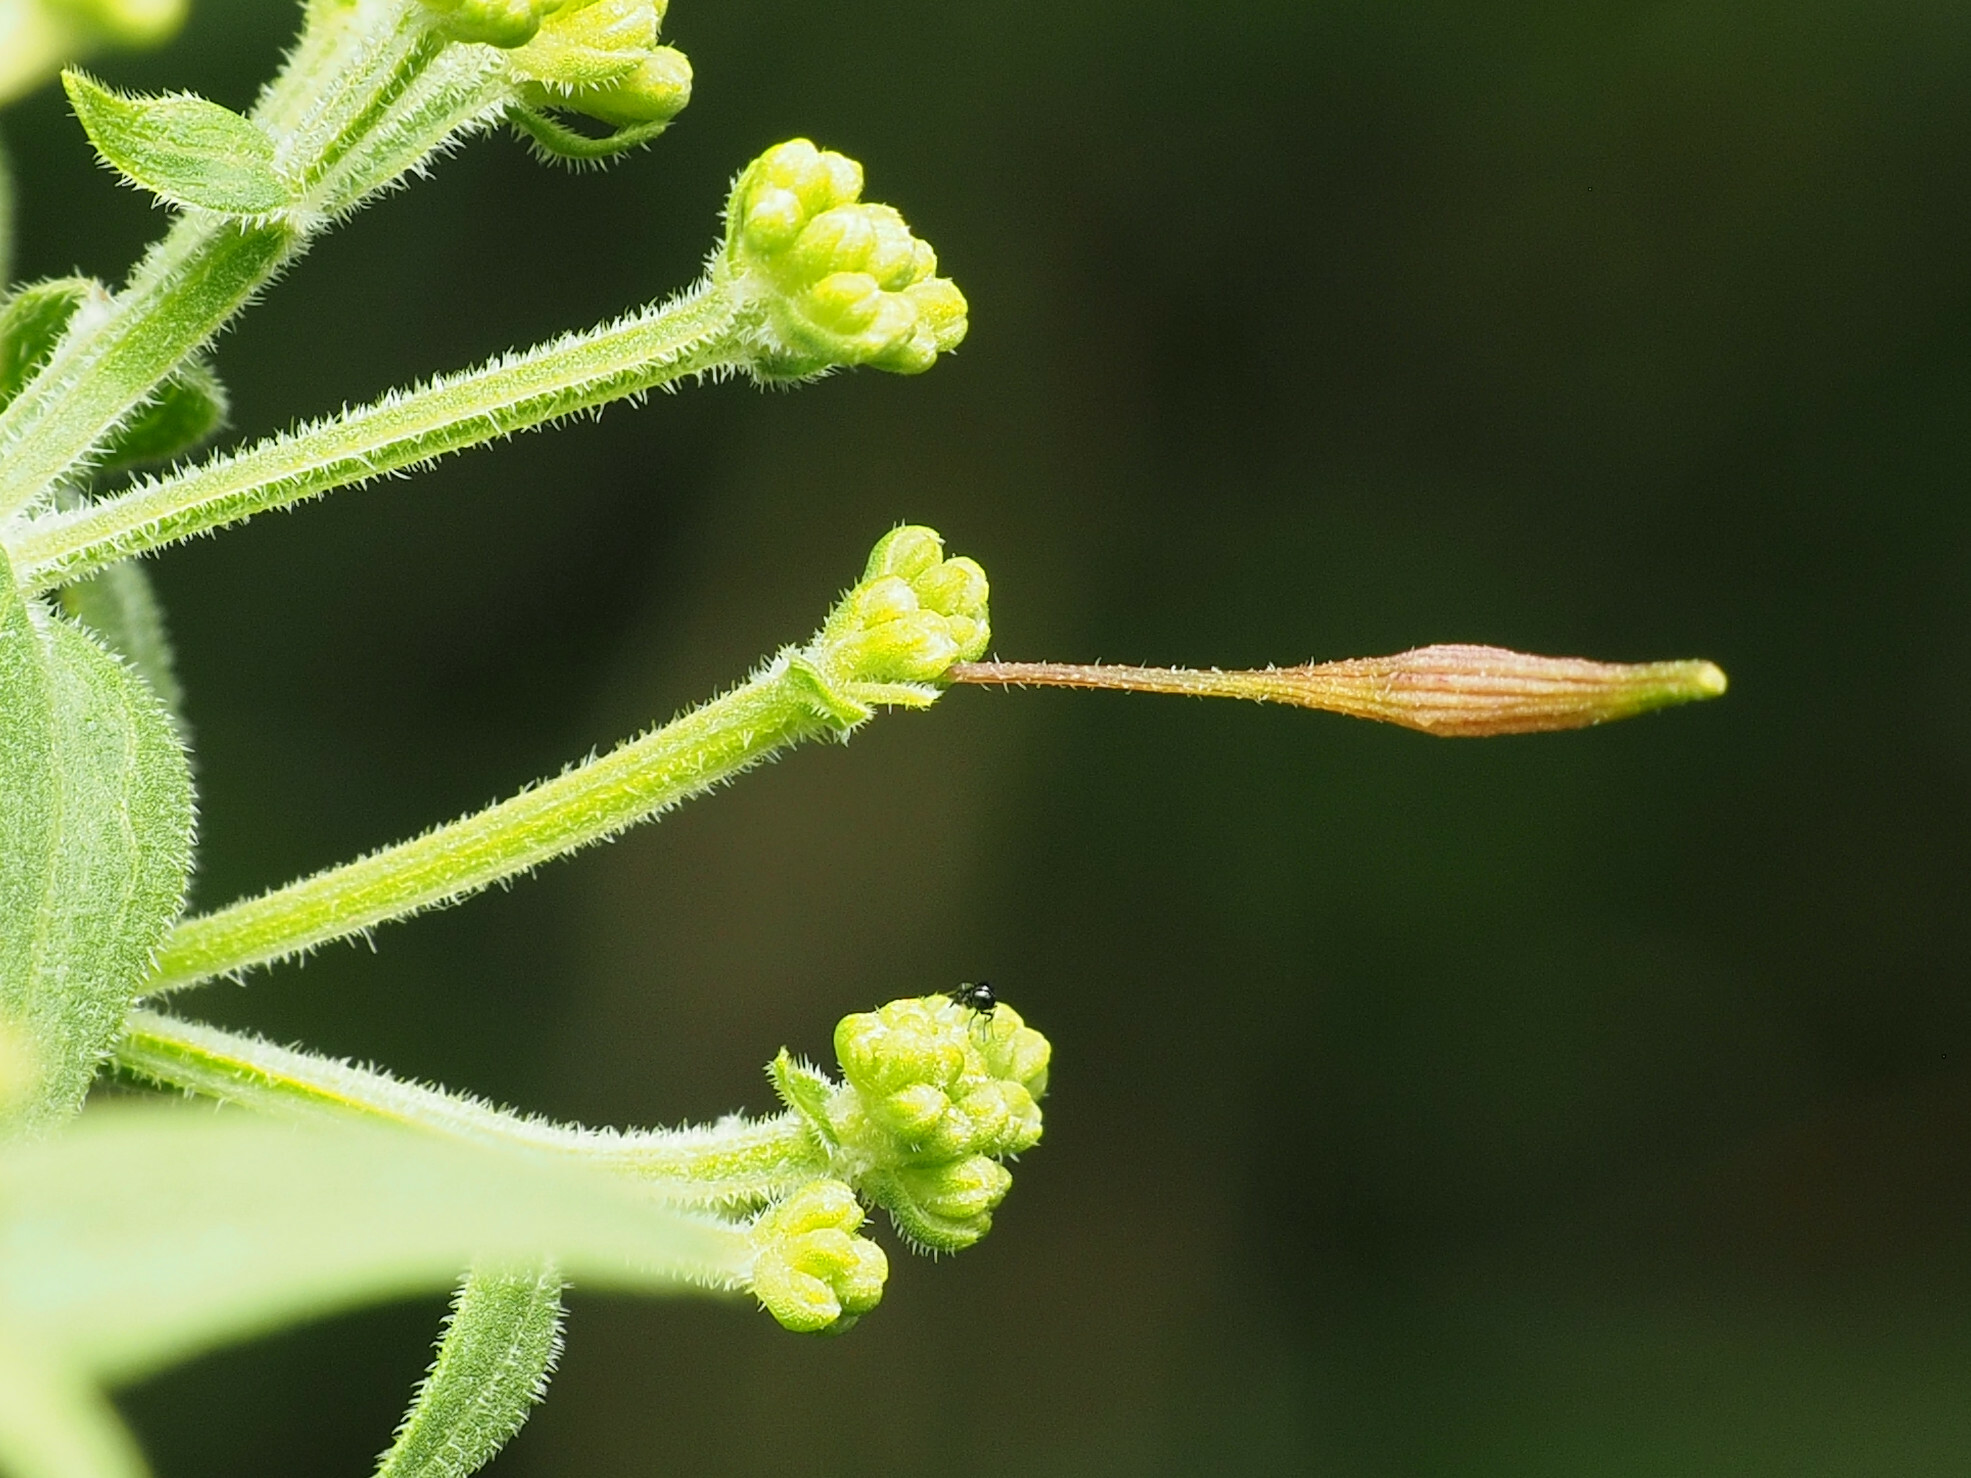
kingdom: Animalia
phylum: Arthropoda
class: Insecta
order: Diptera
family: Cecidomyiidae
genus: Rhopalomyia
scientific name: Rhopalomyia pedicellata
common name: Goldentop pedicellate gall midge
